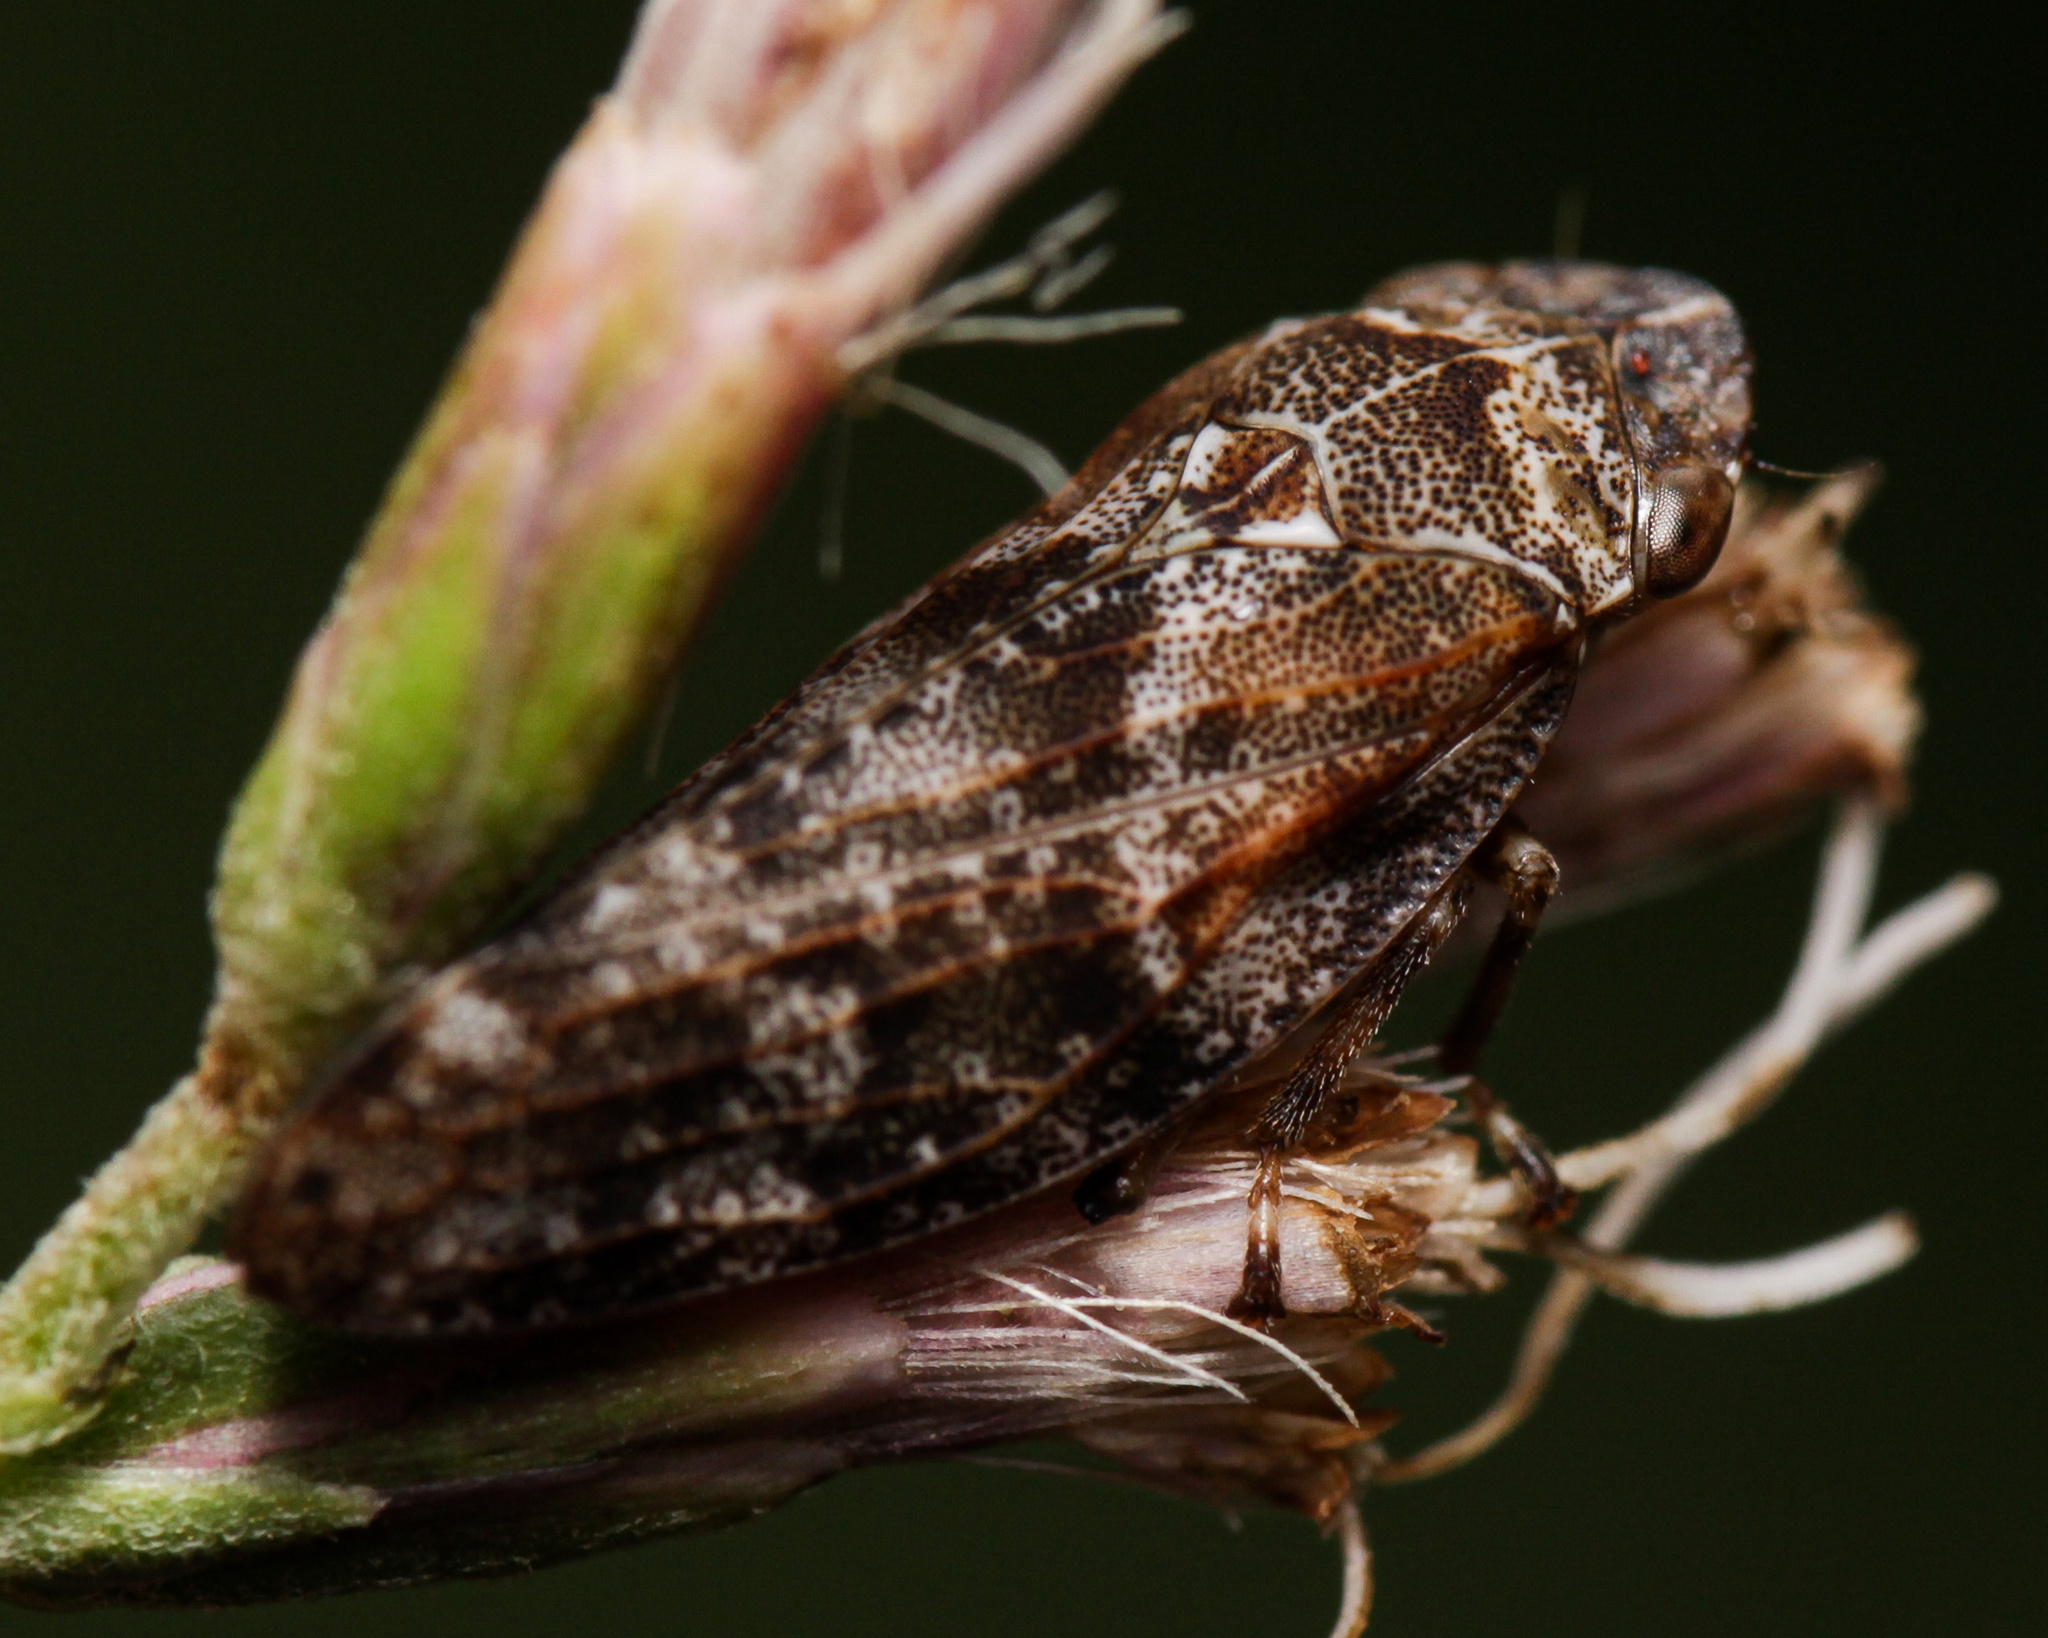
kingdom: Animalia
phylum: Arthropoda
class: Insecta
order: Hemiptera
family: Aphrophoridae
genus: Aphrophora
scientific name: Aphrophora corticea
